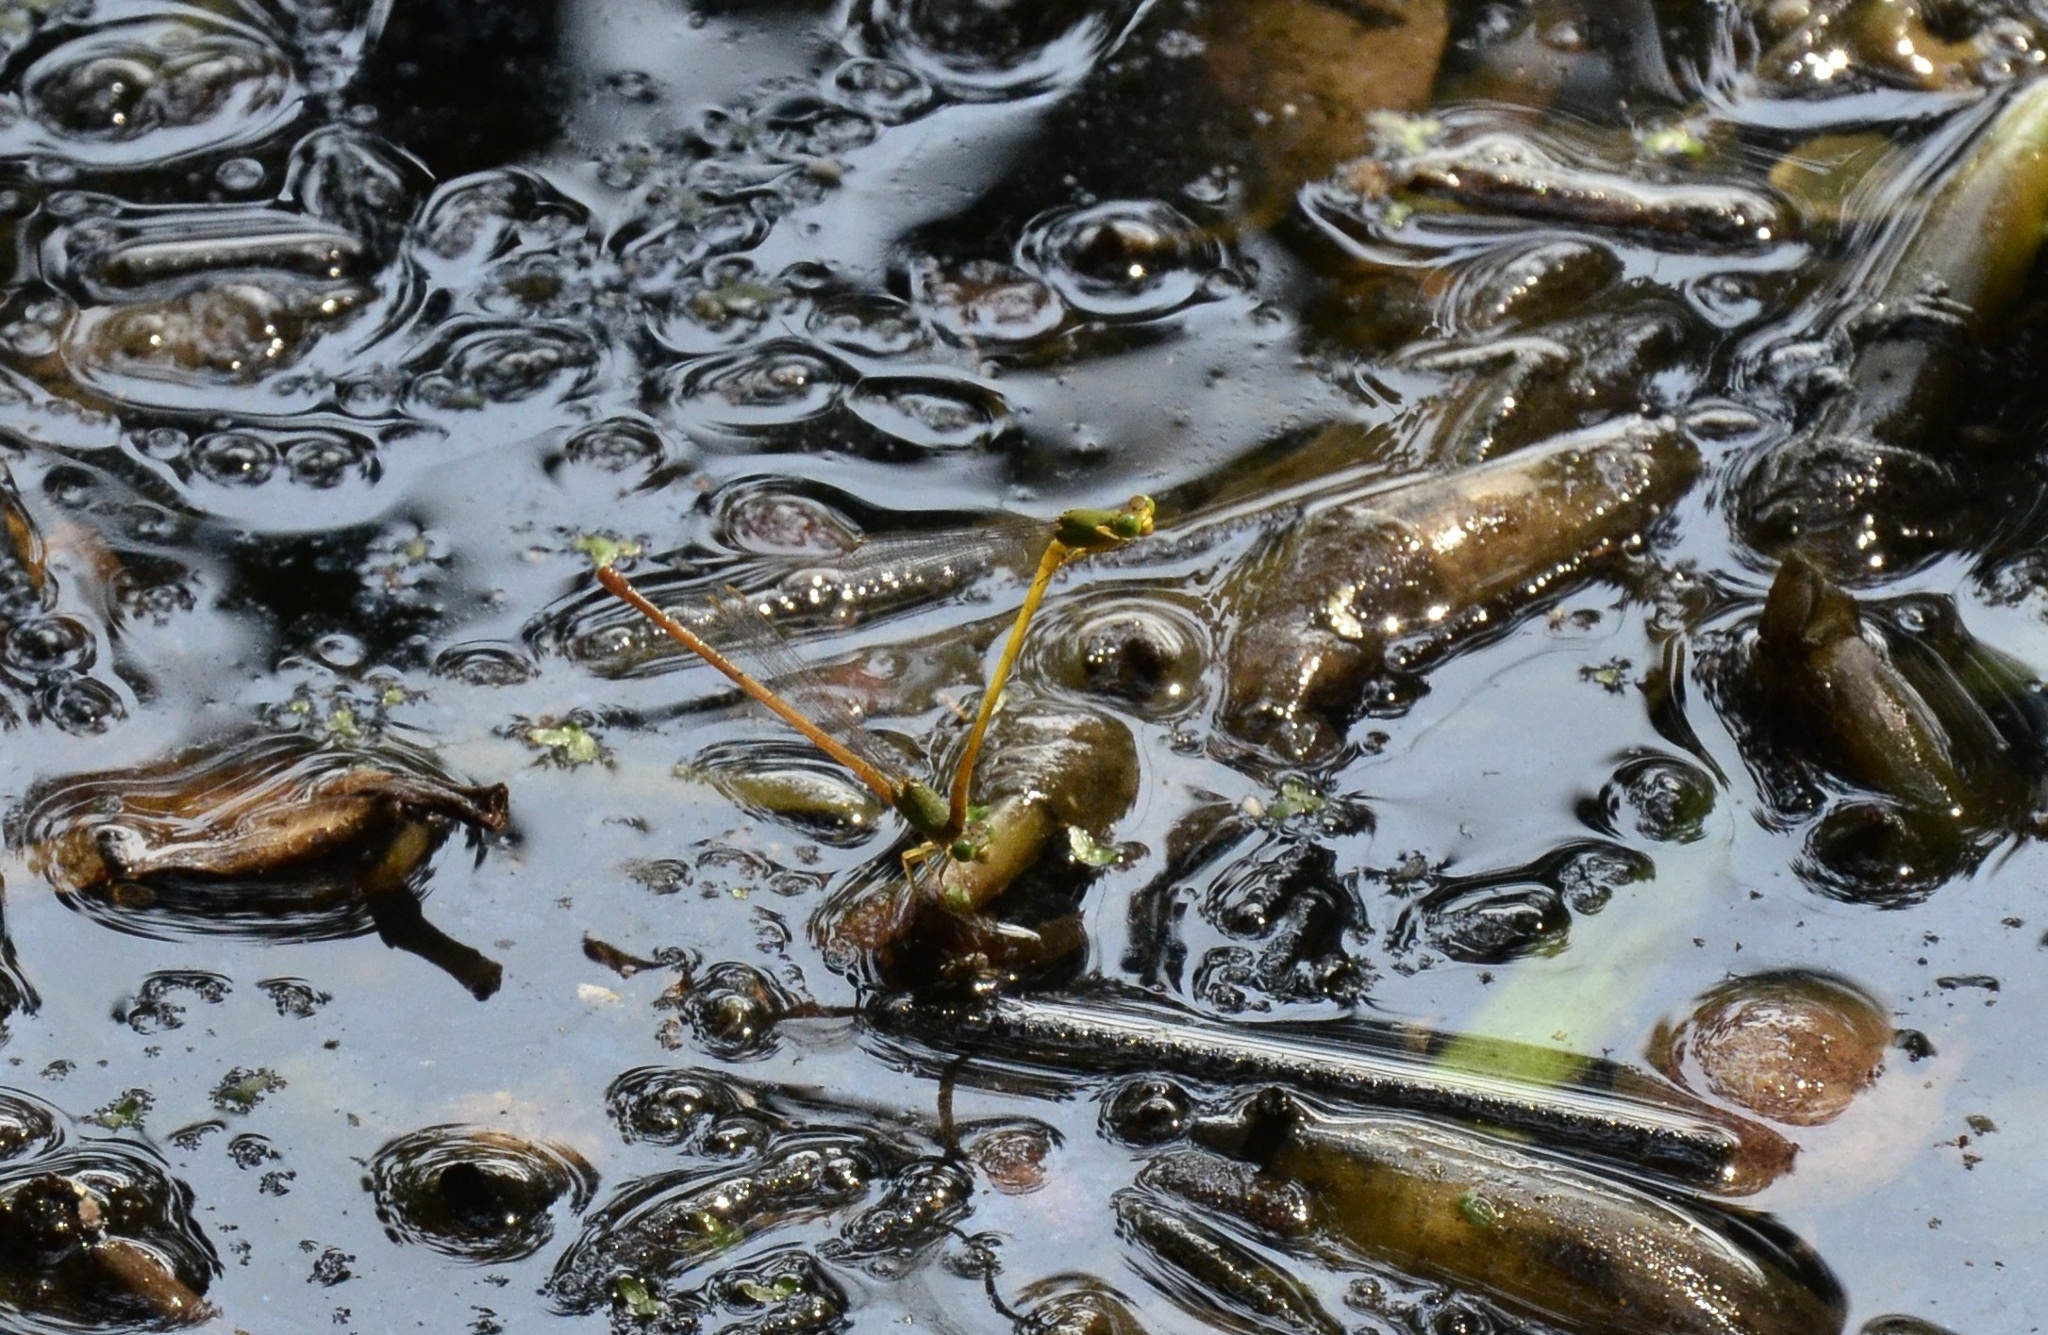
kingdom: Animalia
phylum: Arthropoda
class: Insecta
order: Odonata
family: Coenagrionidae
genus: Ceriagrion
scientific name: Ceriagrion coromandelianum
